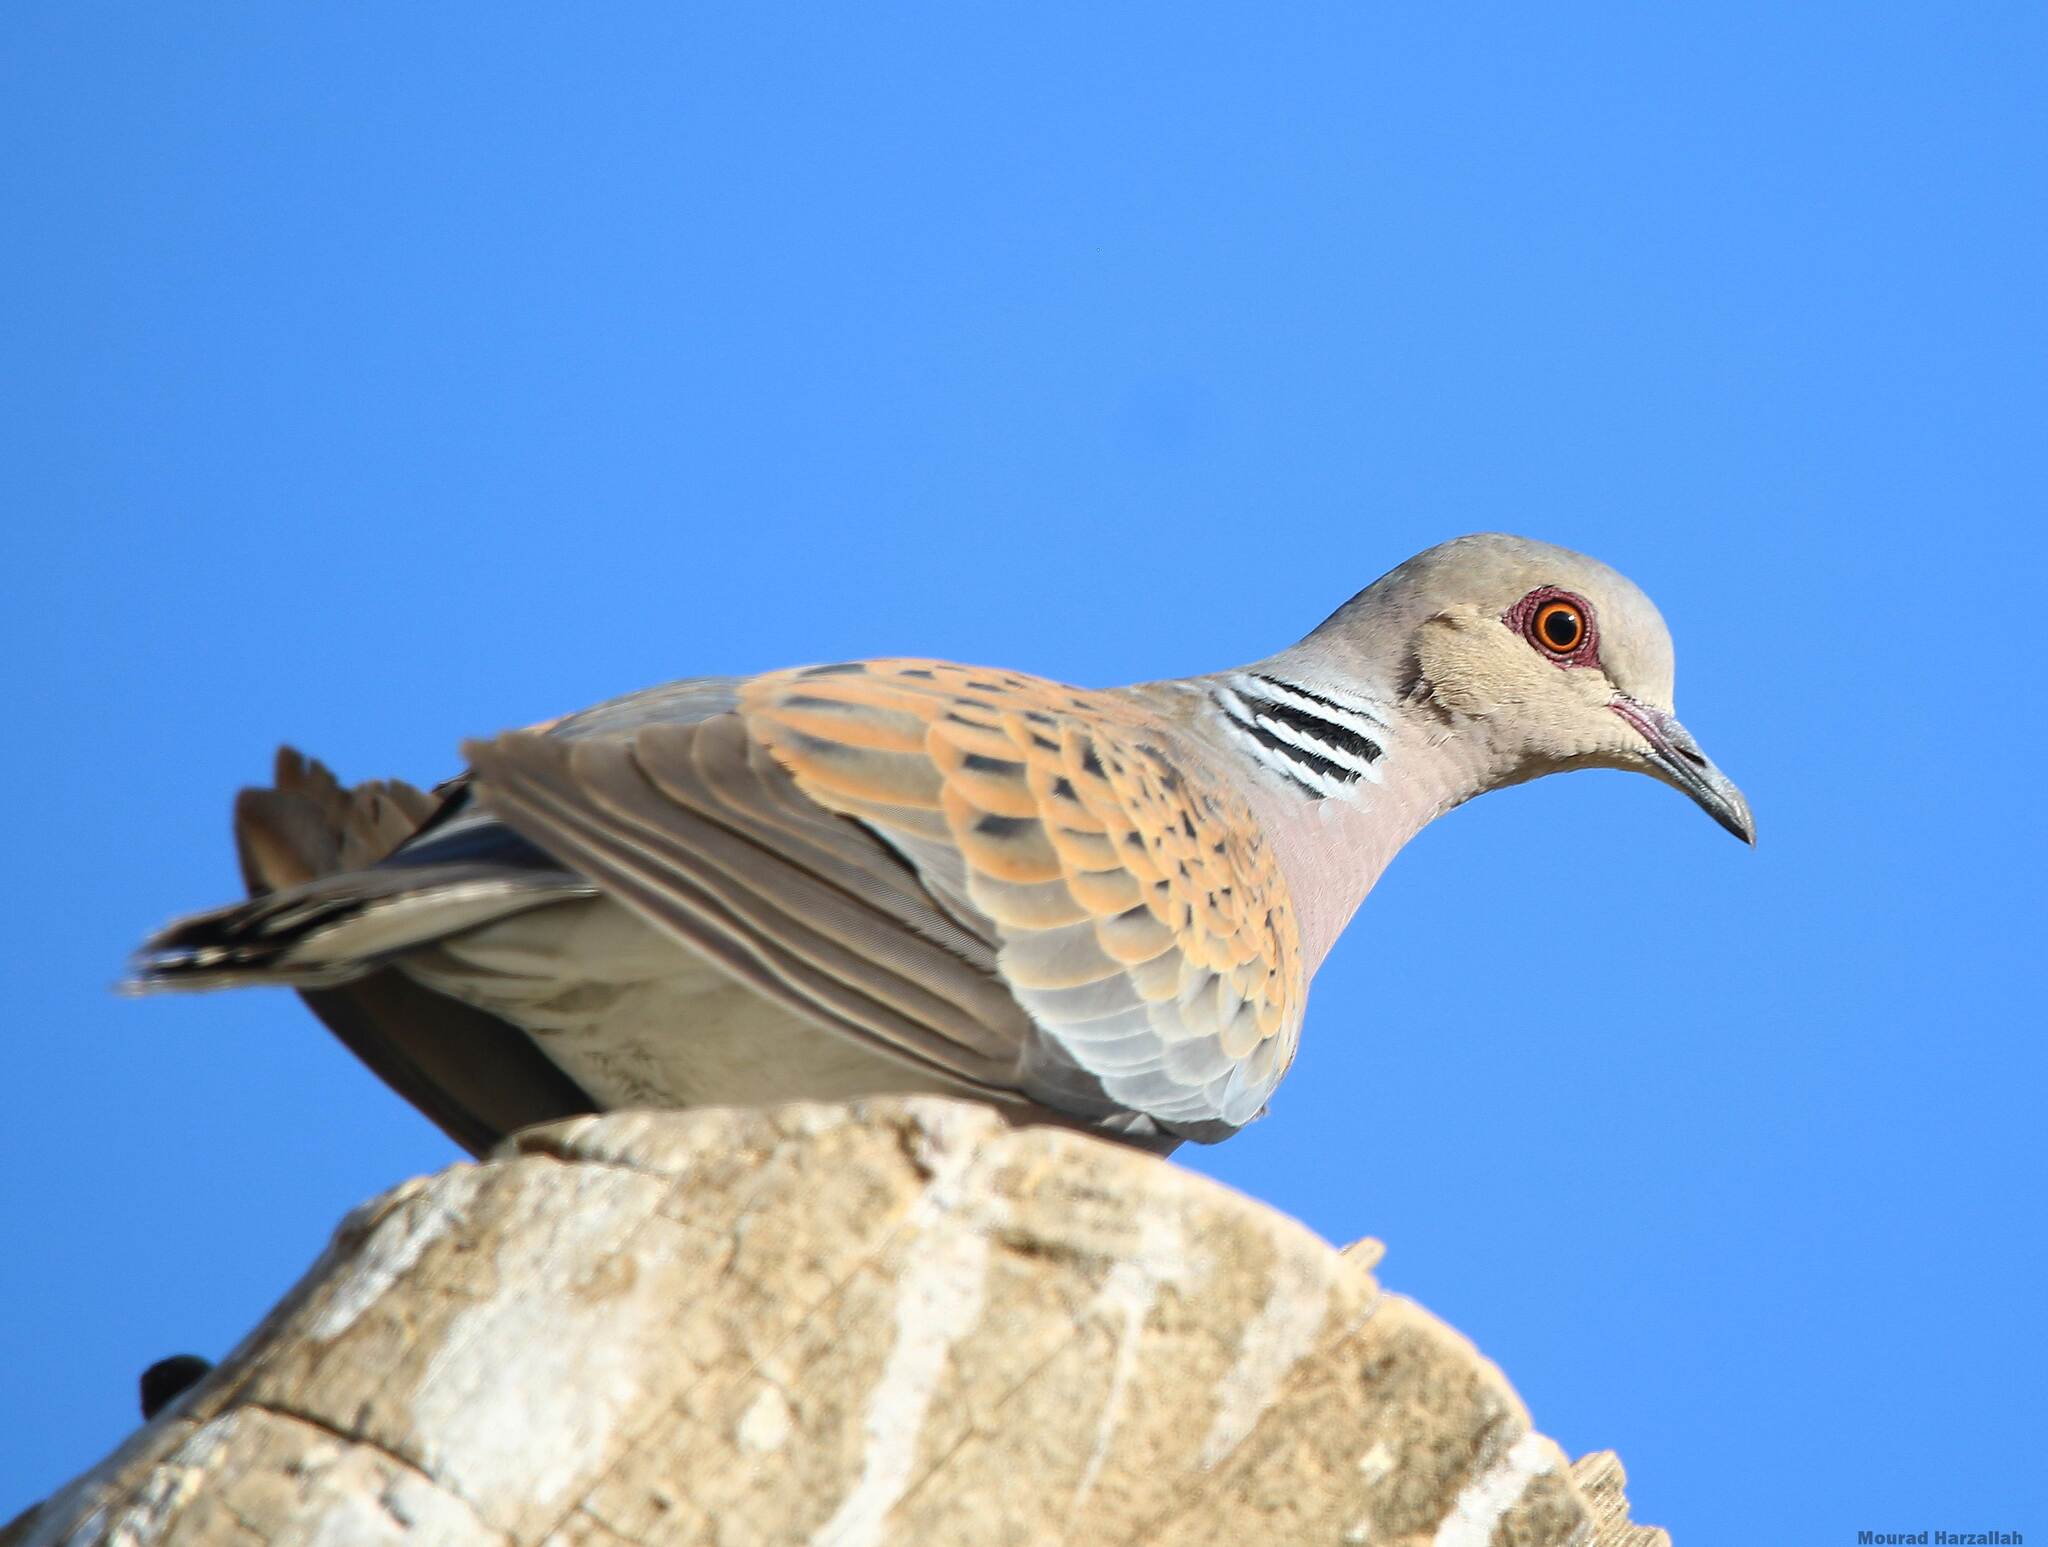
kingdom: Animalia
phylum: Chordata
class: Aves
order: Columbiformes
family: Columbidae
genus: Streptopelia
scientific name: Streptopelia turtur
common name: European turtle dove
